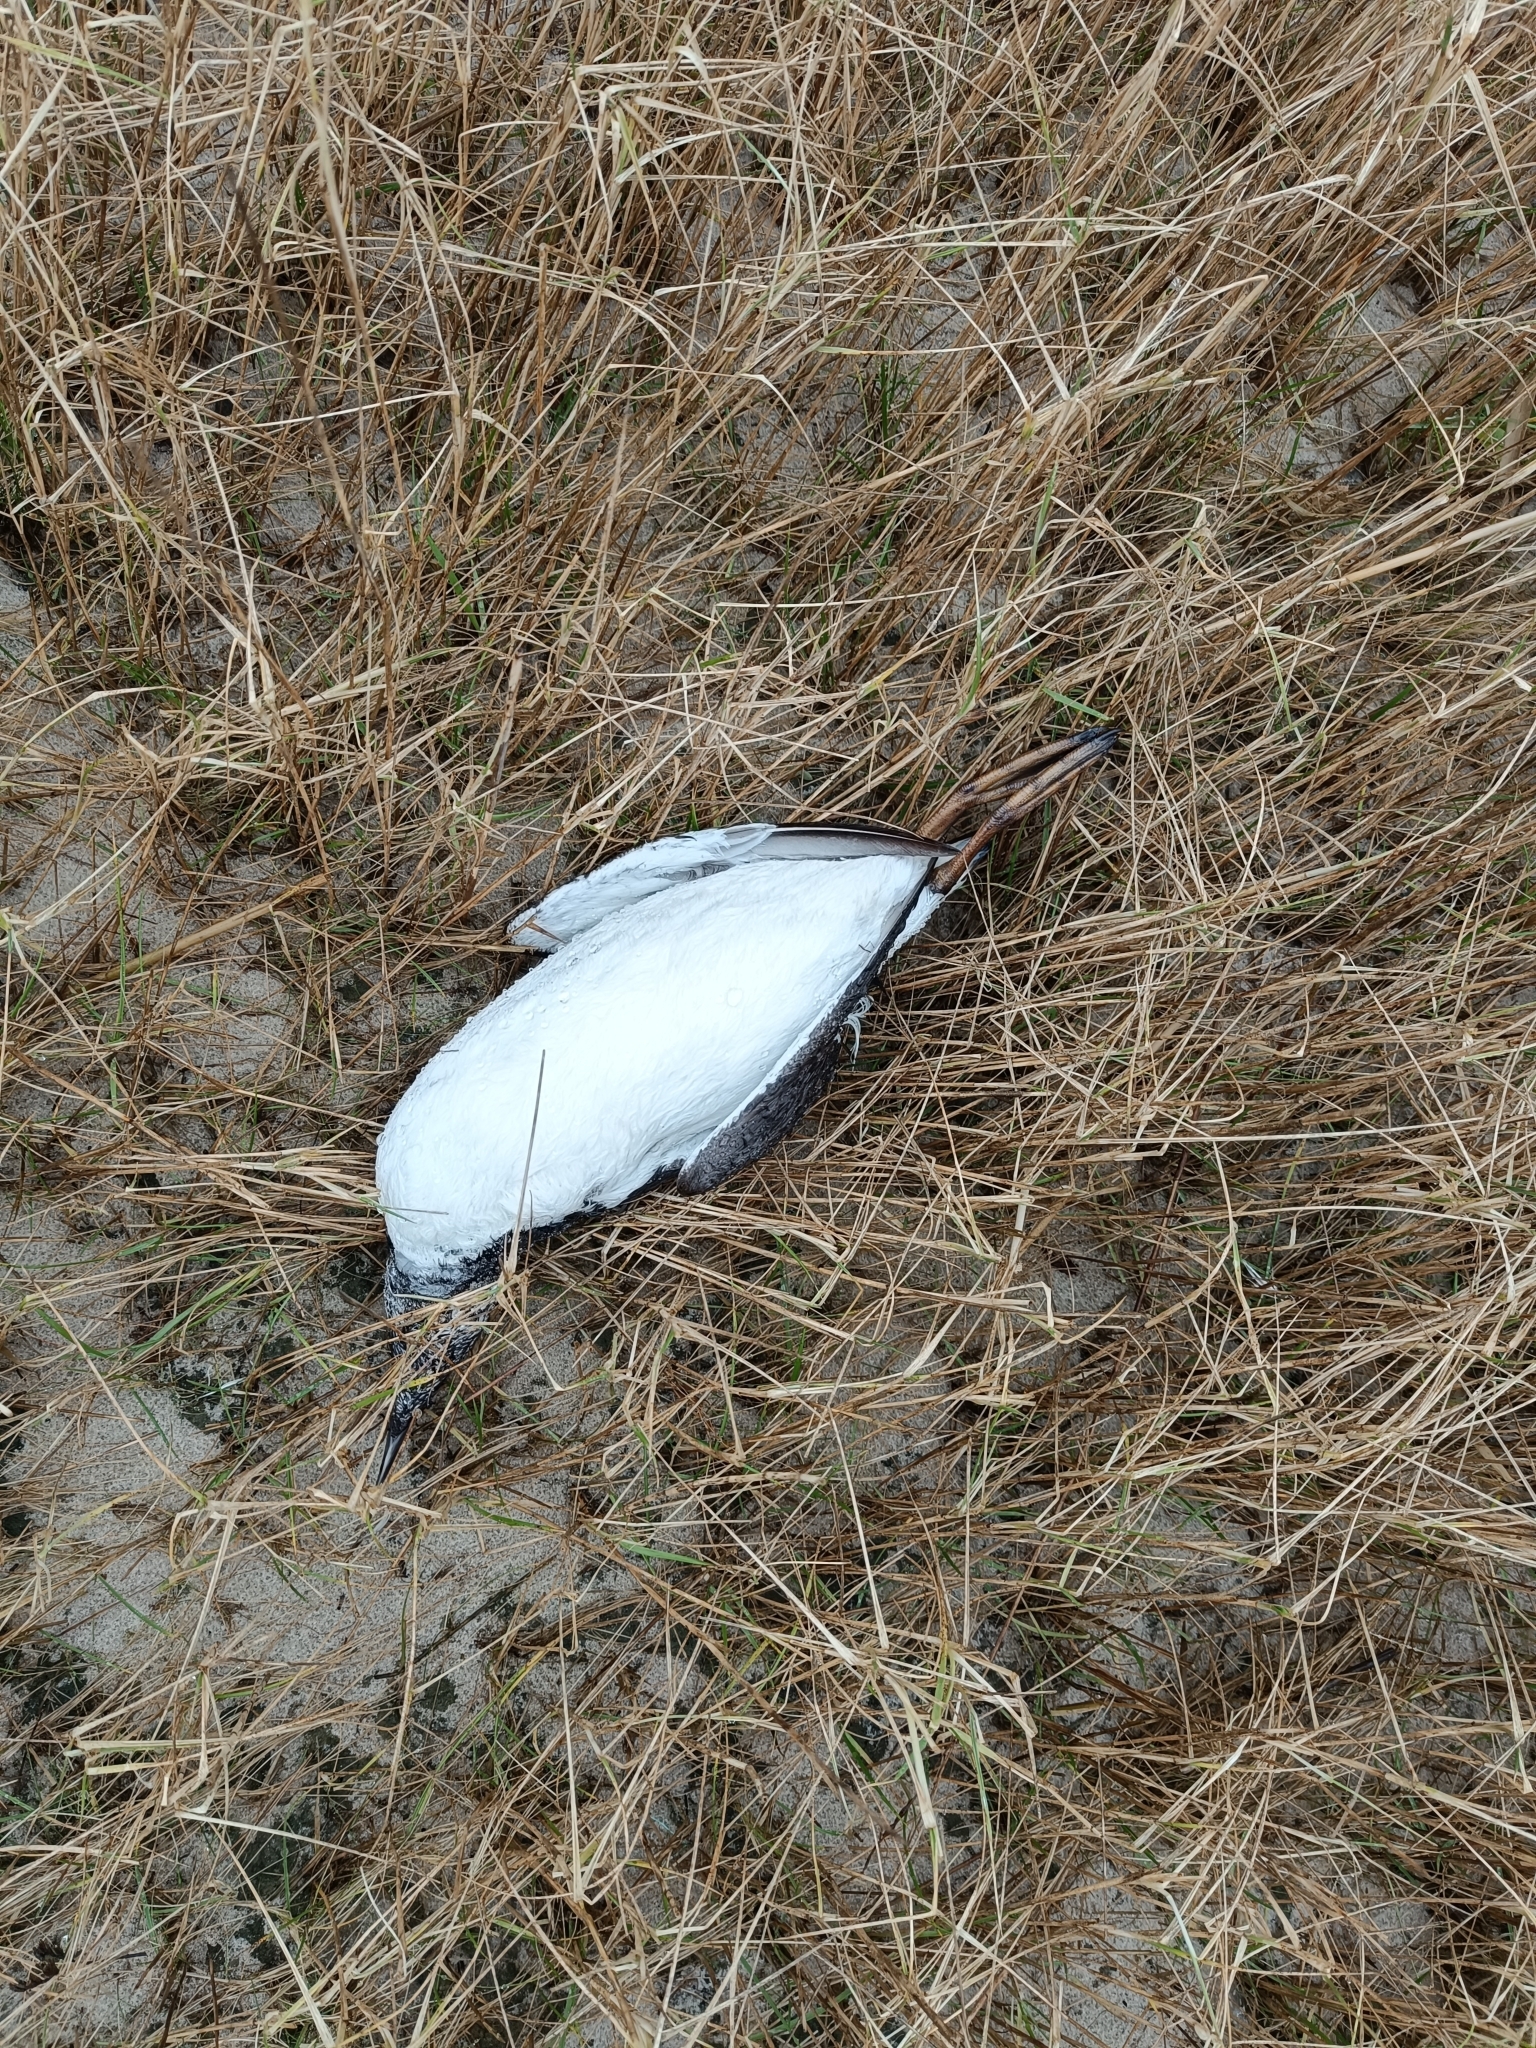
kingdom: Animalia
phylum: Chordata
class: Aves
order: Charadriiformes
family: Alcidae
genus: Uria
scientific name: Uria aalge
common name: Common murre
